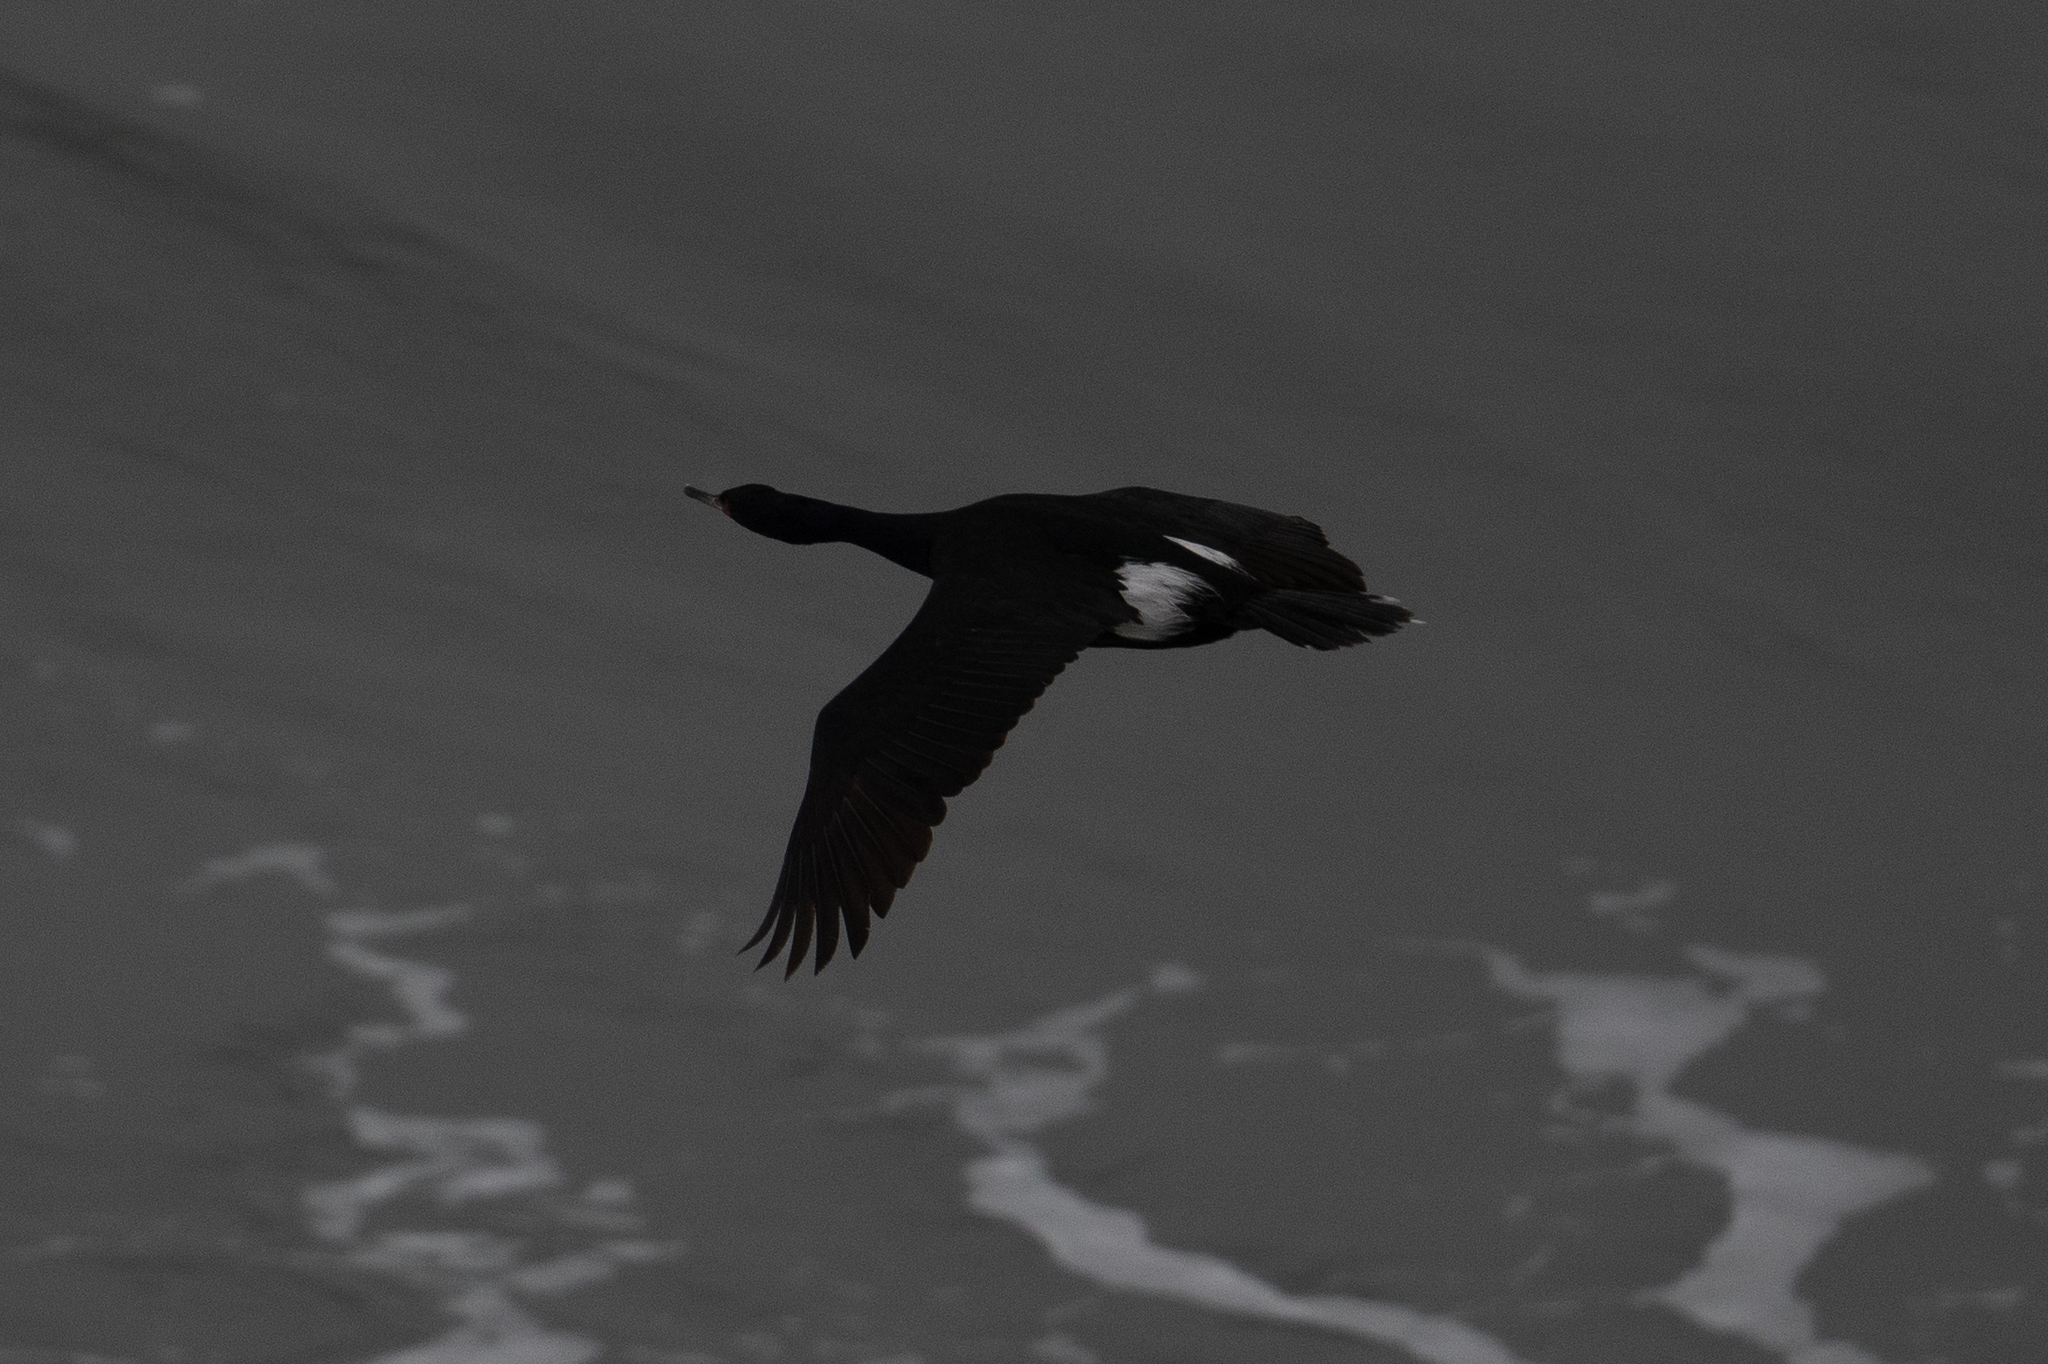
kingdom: Animalia
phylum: Chordata
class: Aves
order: Suliformes
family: Phalacrocoracidae
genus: Phalacrocorax
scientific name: Phalacrocorax pelagicus
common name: Pelagic cormorant
